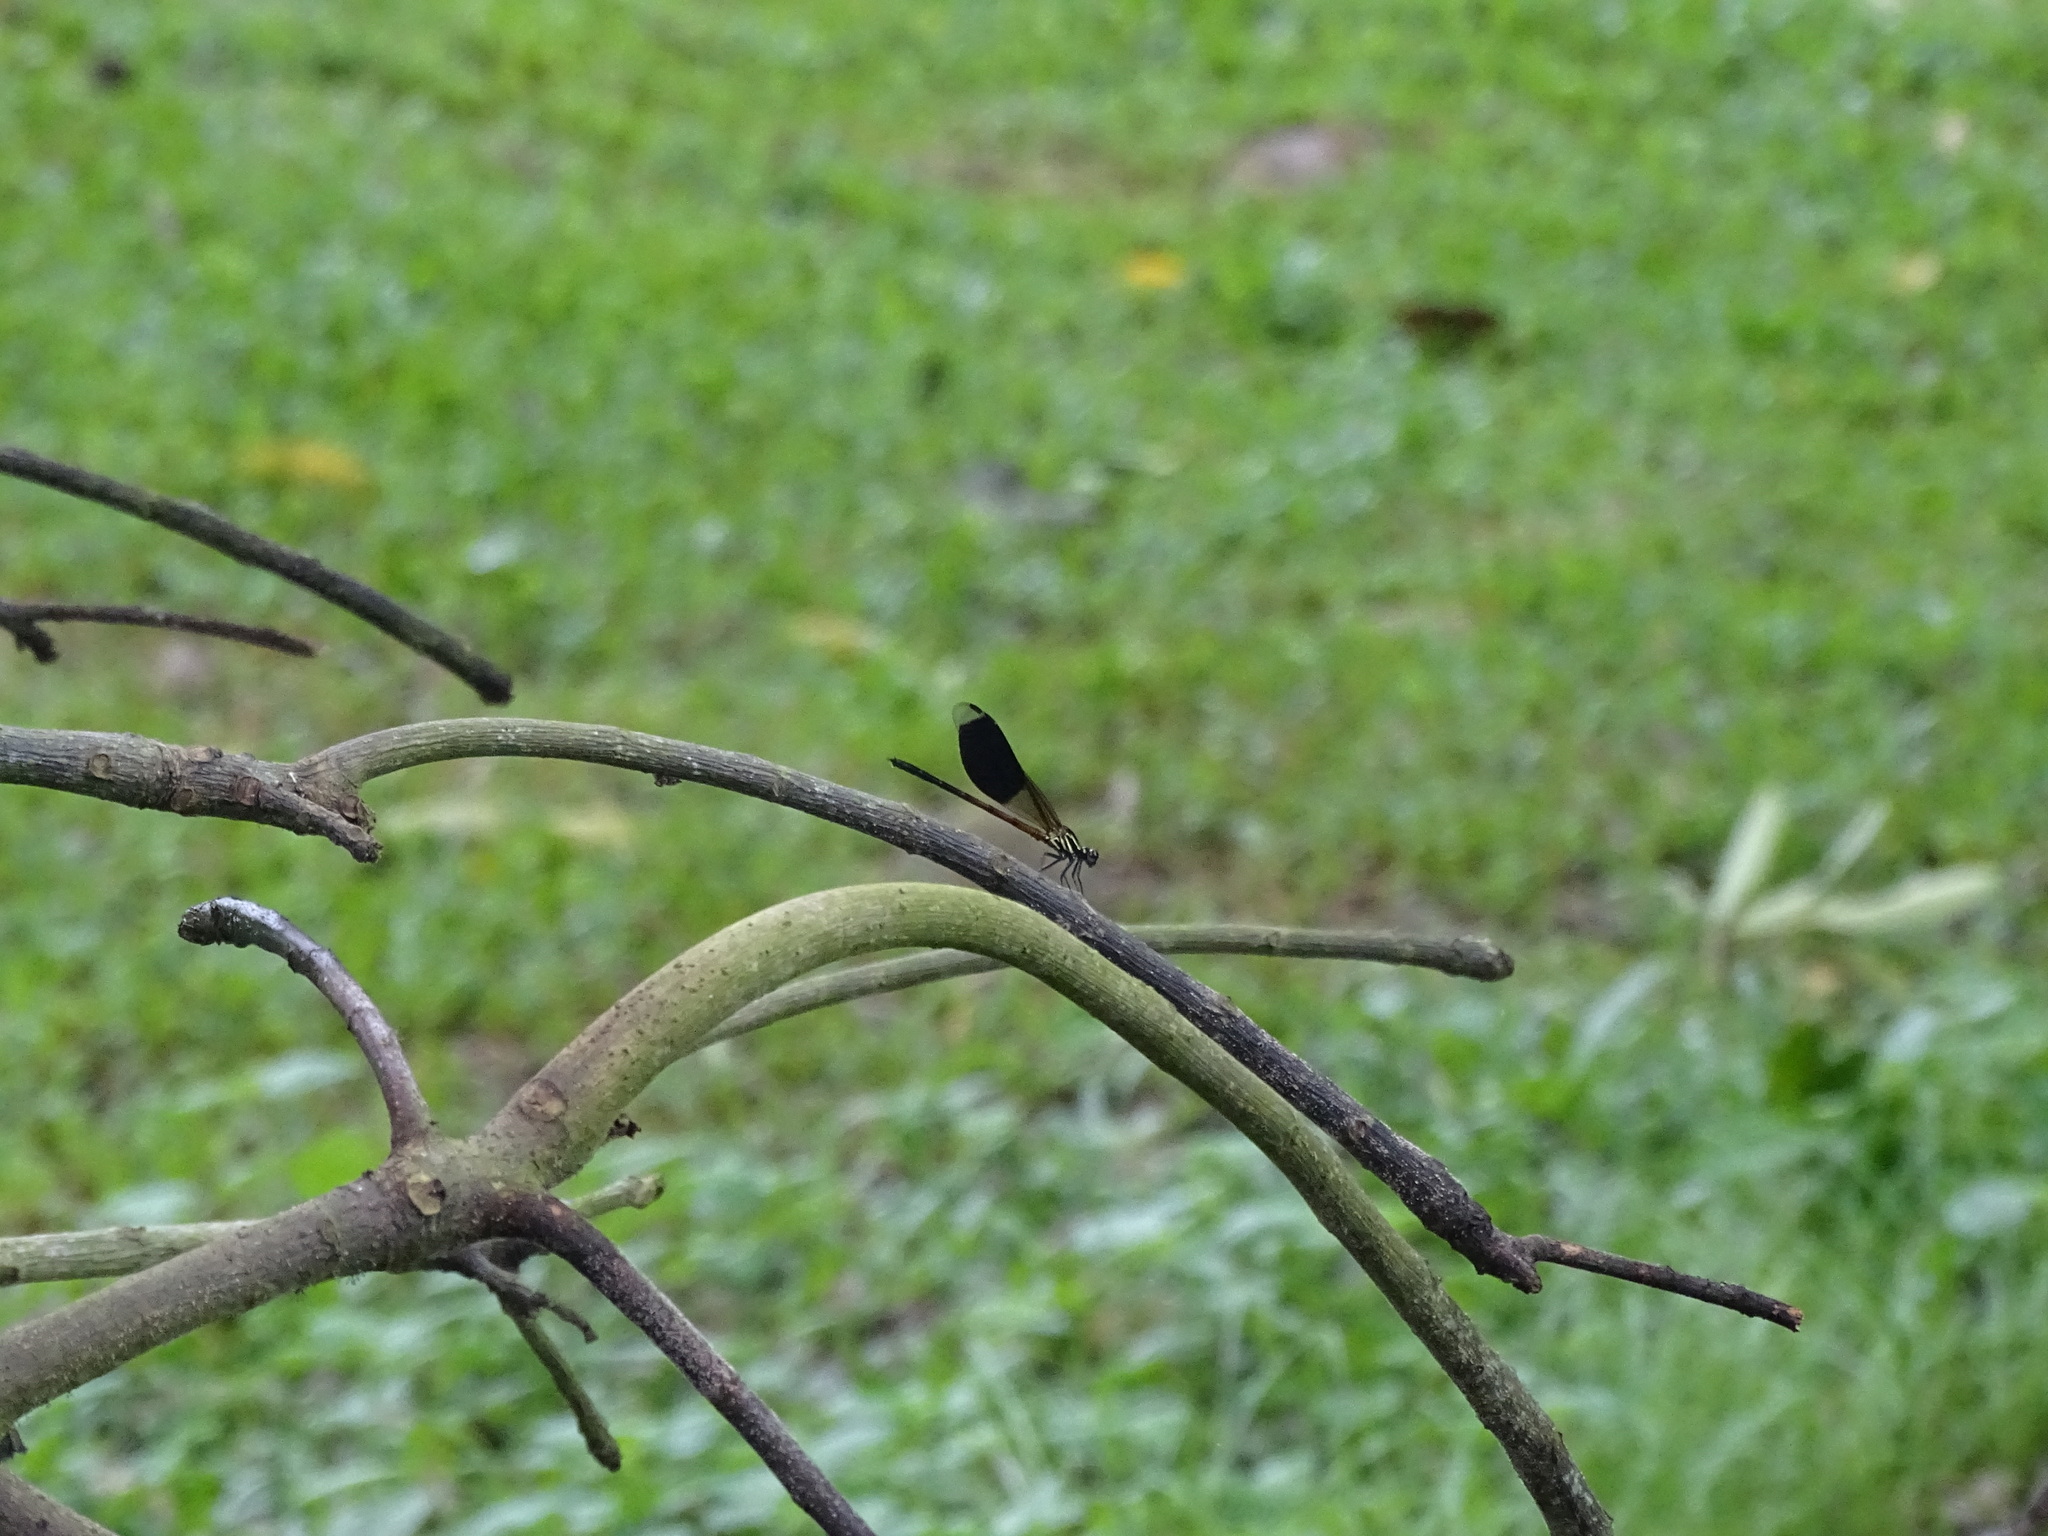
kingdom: Animalia
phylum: Arthropoda
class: Insecta
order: Odonata
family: Euphaeidae
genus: Euphaea
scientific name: Euphaea formosa
